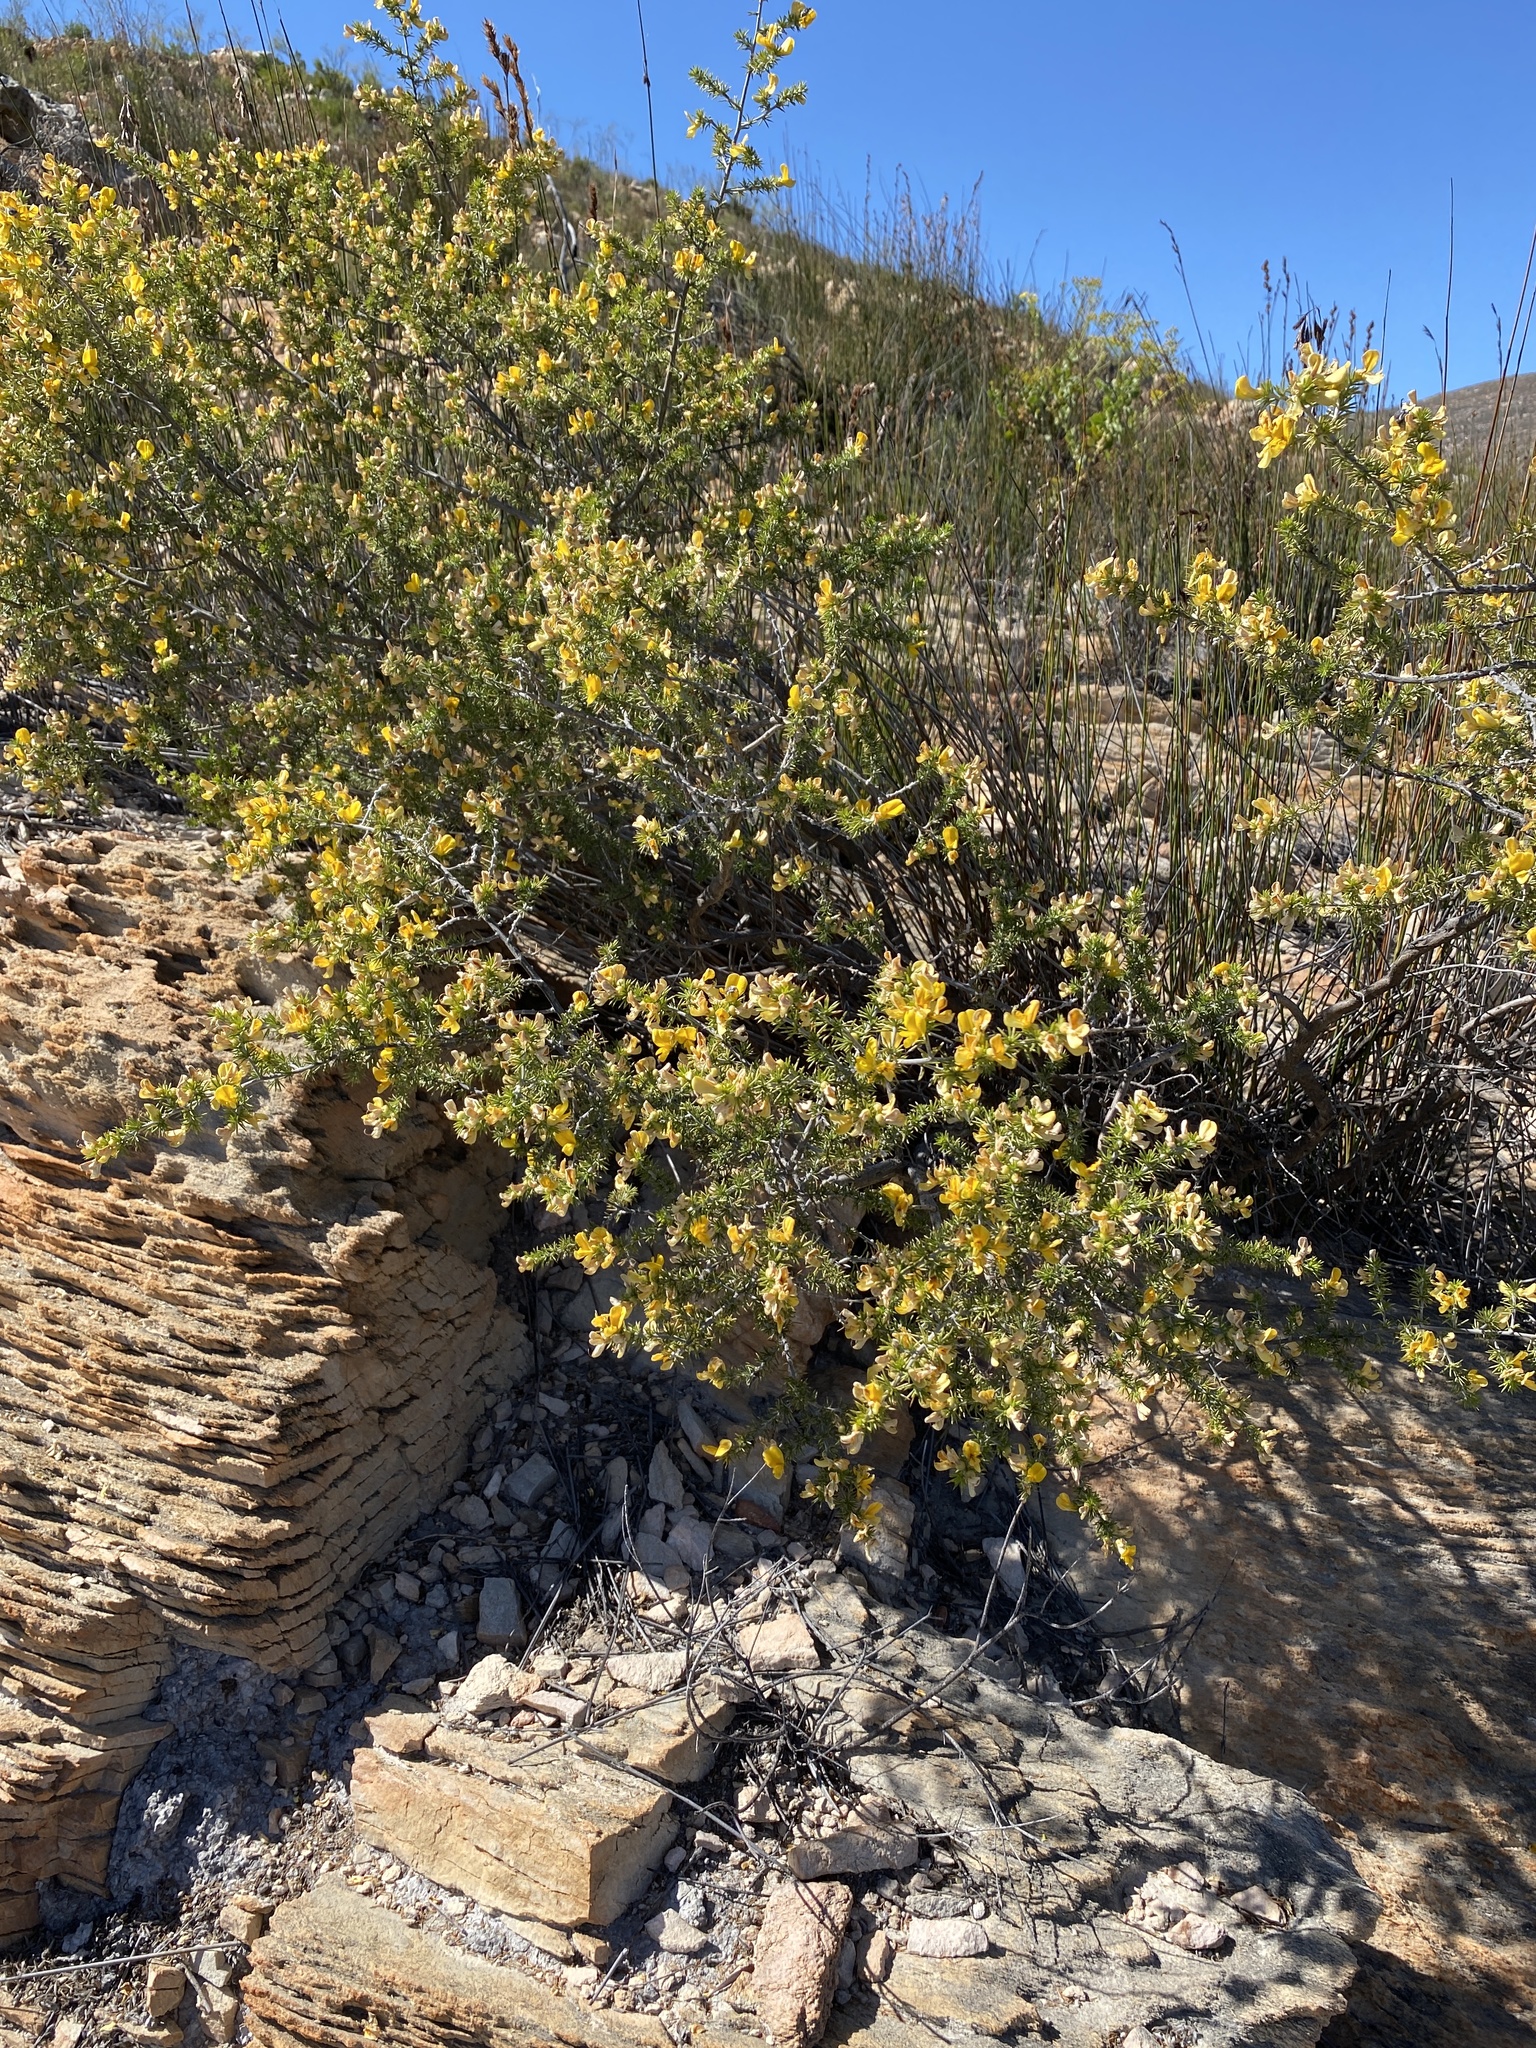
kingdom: Plantae
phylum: Tracheophyta
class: Magnoliopsida
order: Fabales
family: Fabaceae
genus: Aspalathus
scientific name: Aspalathus hirta
